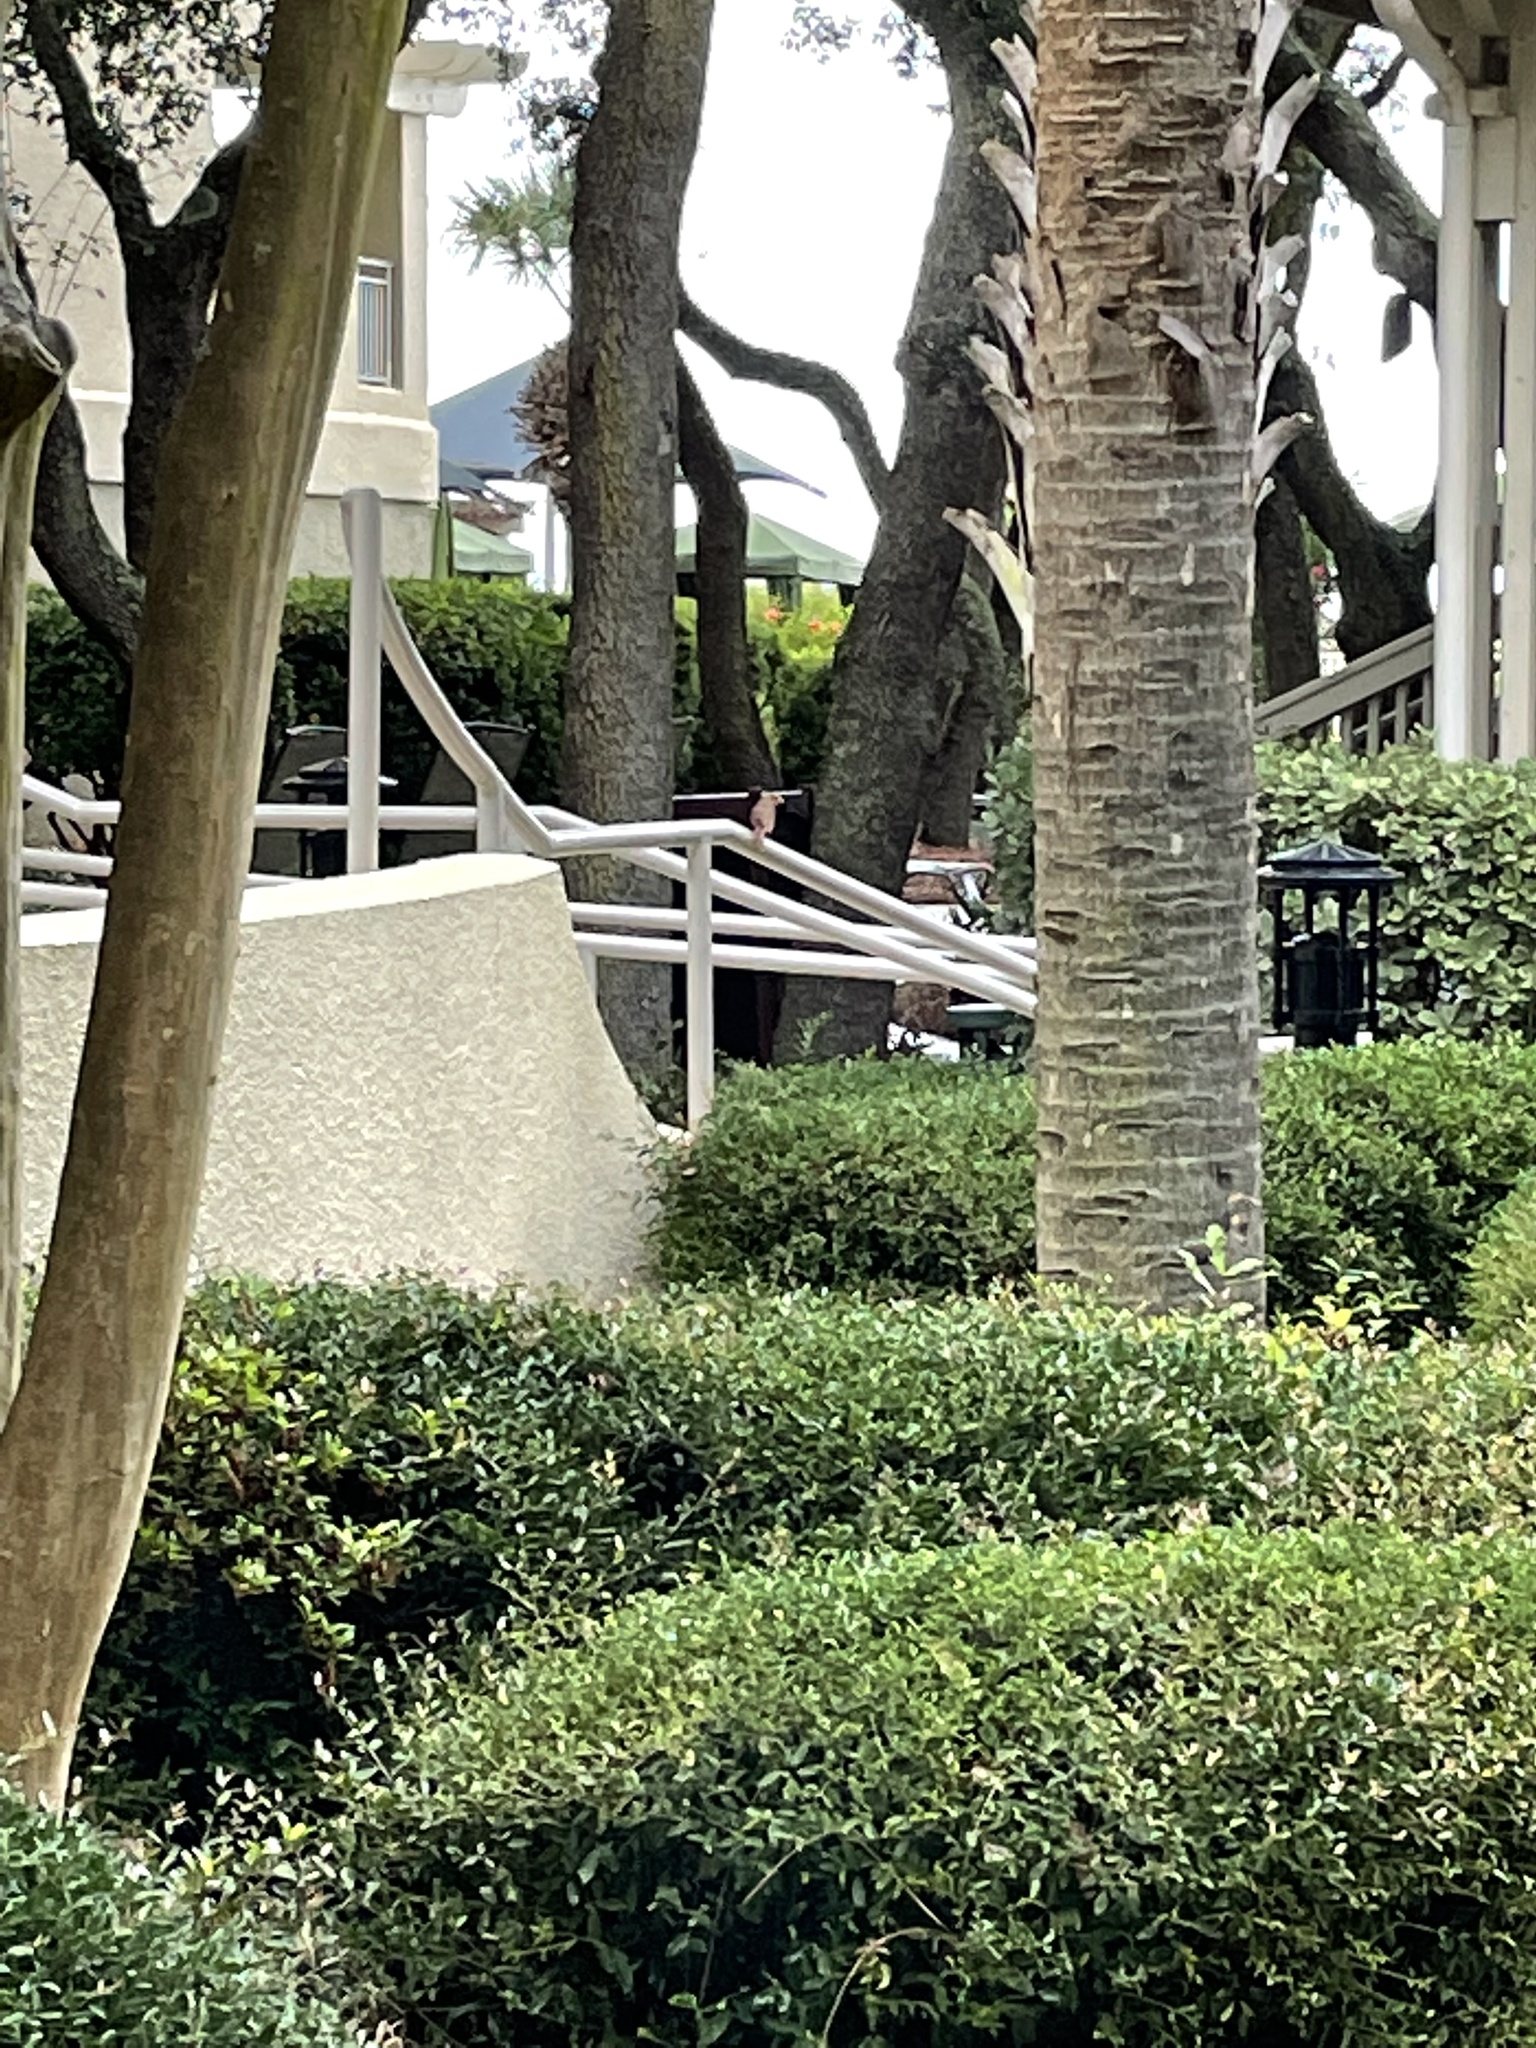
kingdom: Animalia
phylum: Chordata
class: Aves
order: Passeriformes
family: Cardinalidae
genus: Cardinalis
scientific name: Cardinalis cardinalis
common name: Northern cardinal
